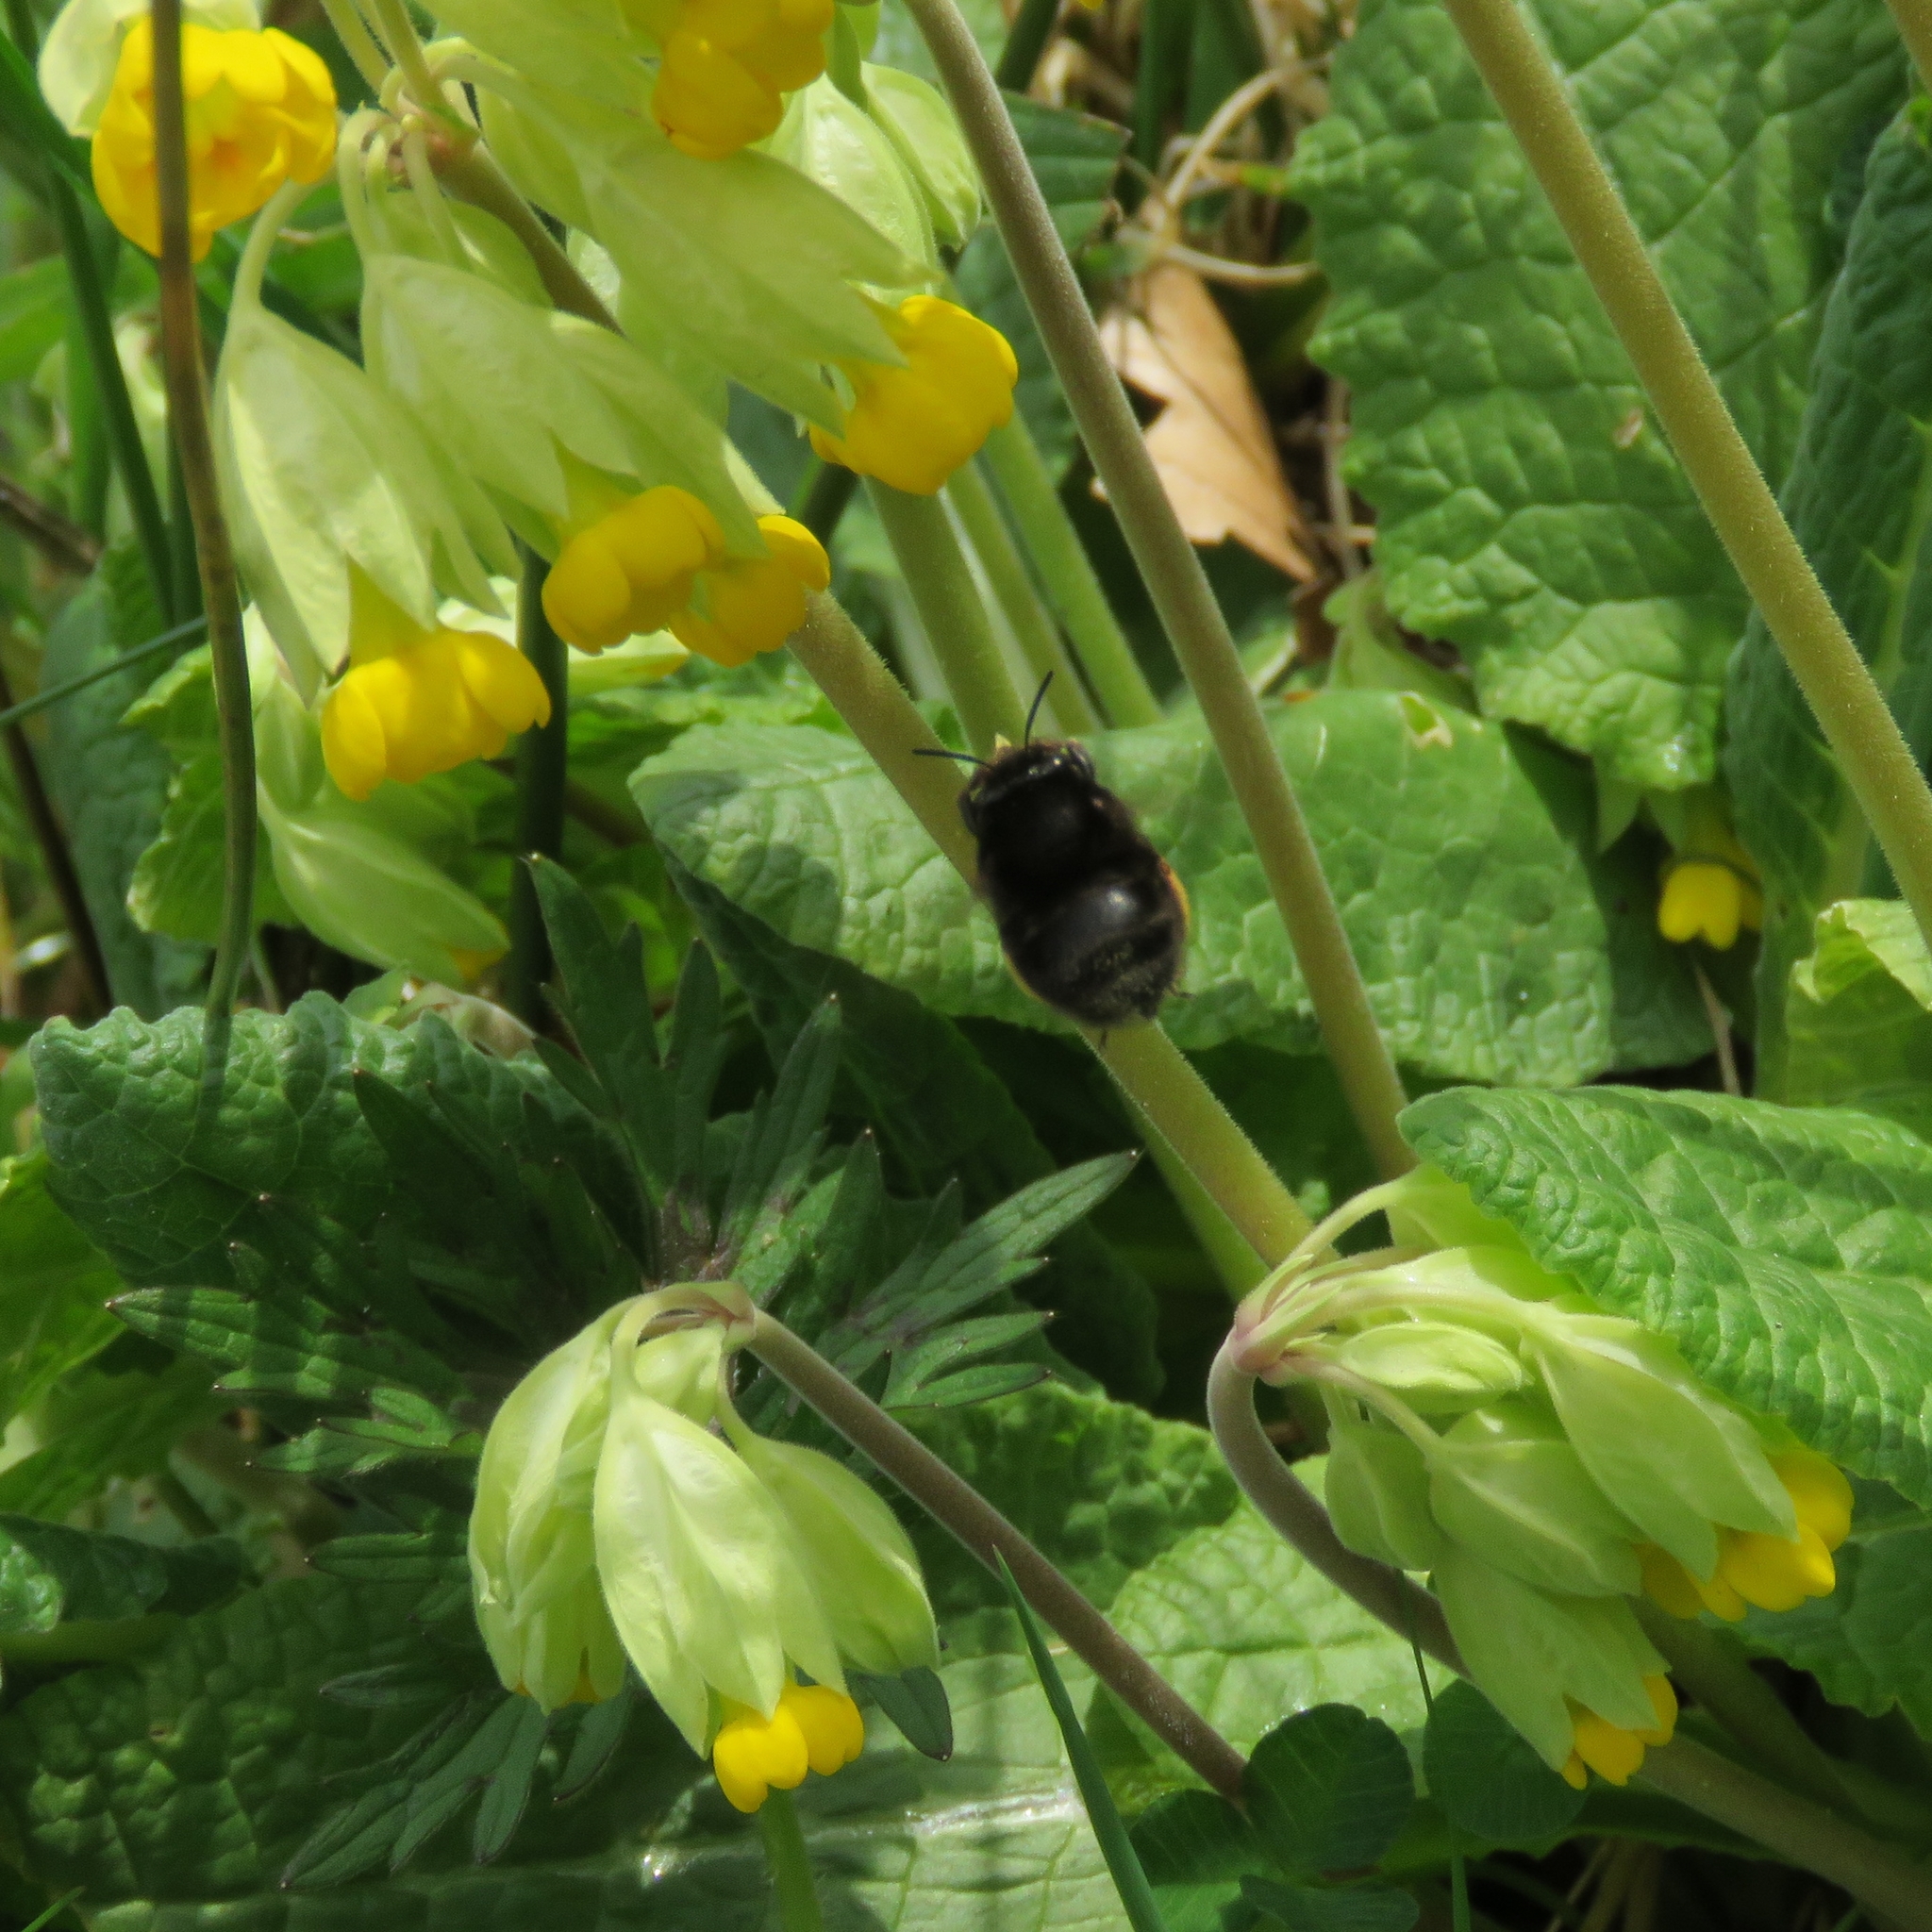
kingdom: Animalia
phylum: Arthropoda
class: Insecta
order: Hymenoptera
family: Apidae
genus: Anthophora
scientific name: Anthophora plumipes
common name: Hairy-footed flower bee
